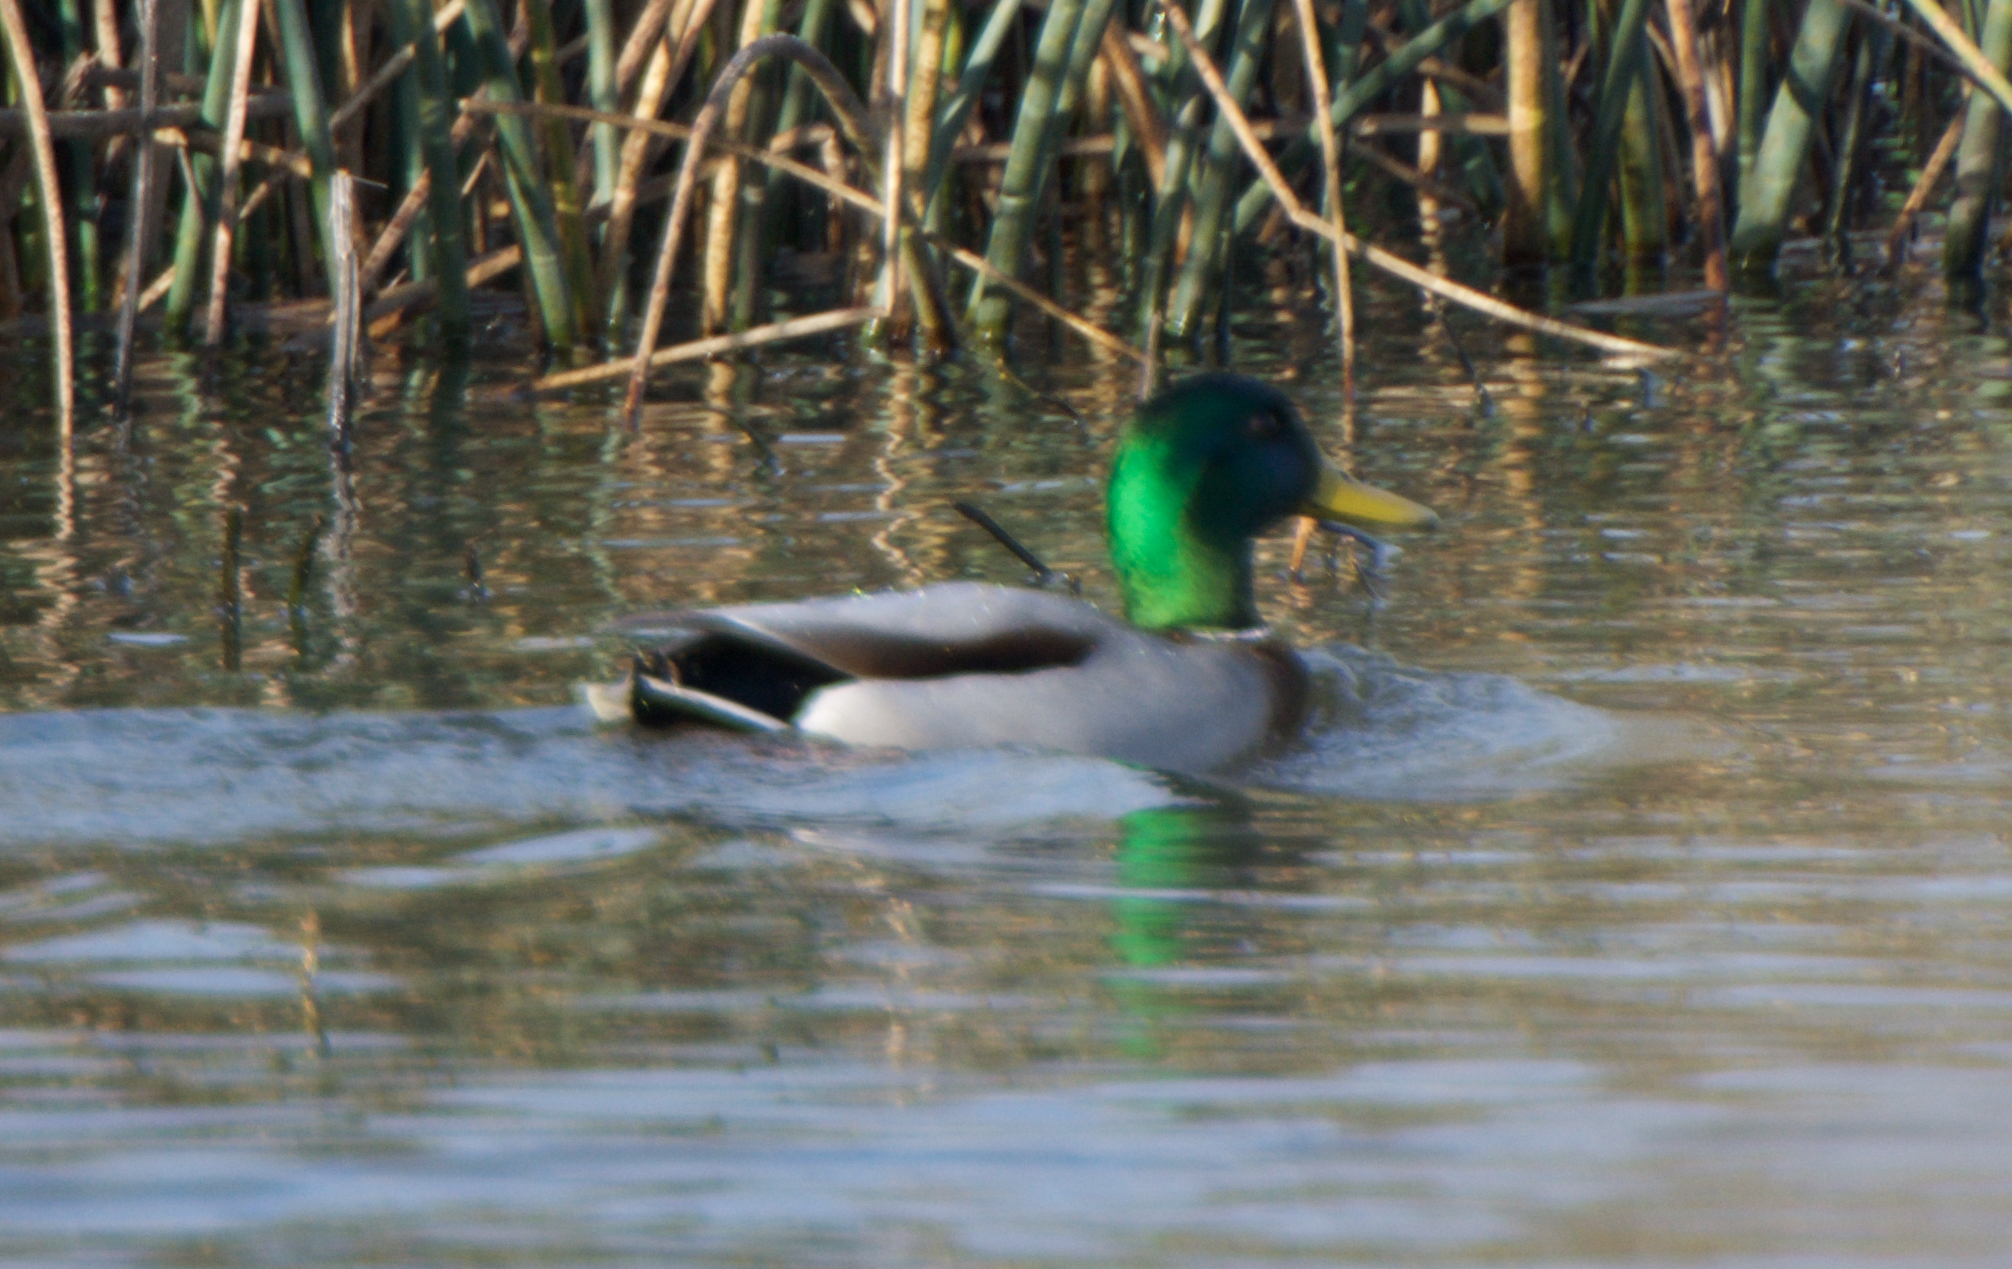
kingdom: Animalia
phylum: Chordata
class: Aves
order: Anseriformes
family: Anatidae
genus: Anas
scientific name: Anas platyrhynchos
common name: Mallard
